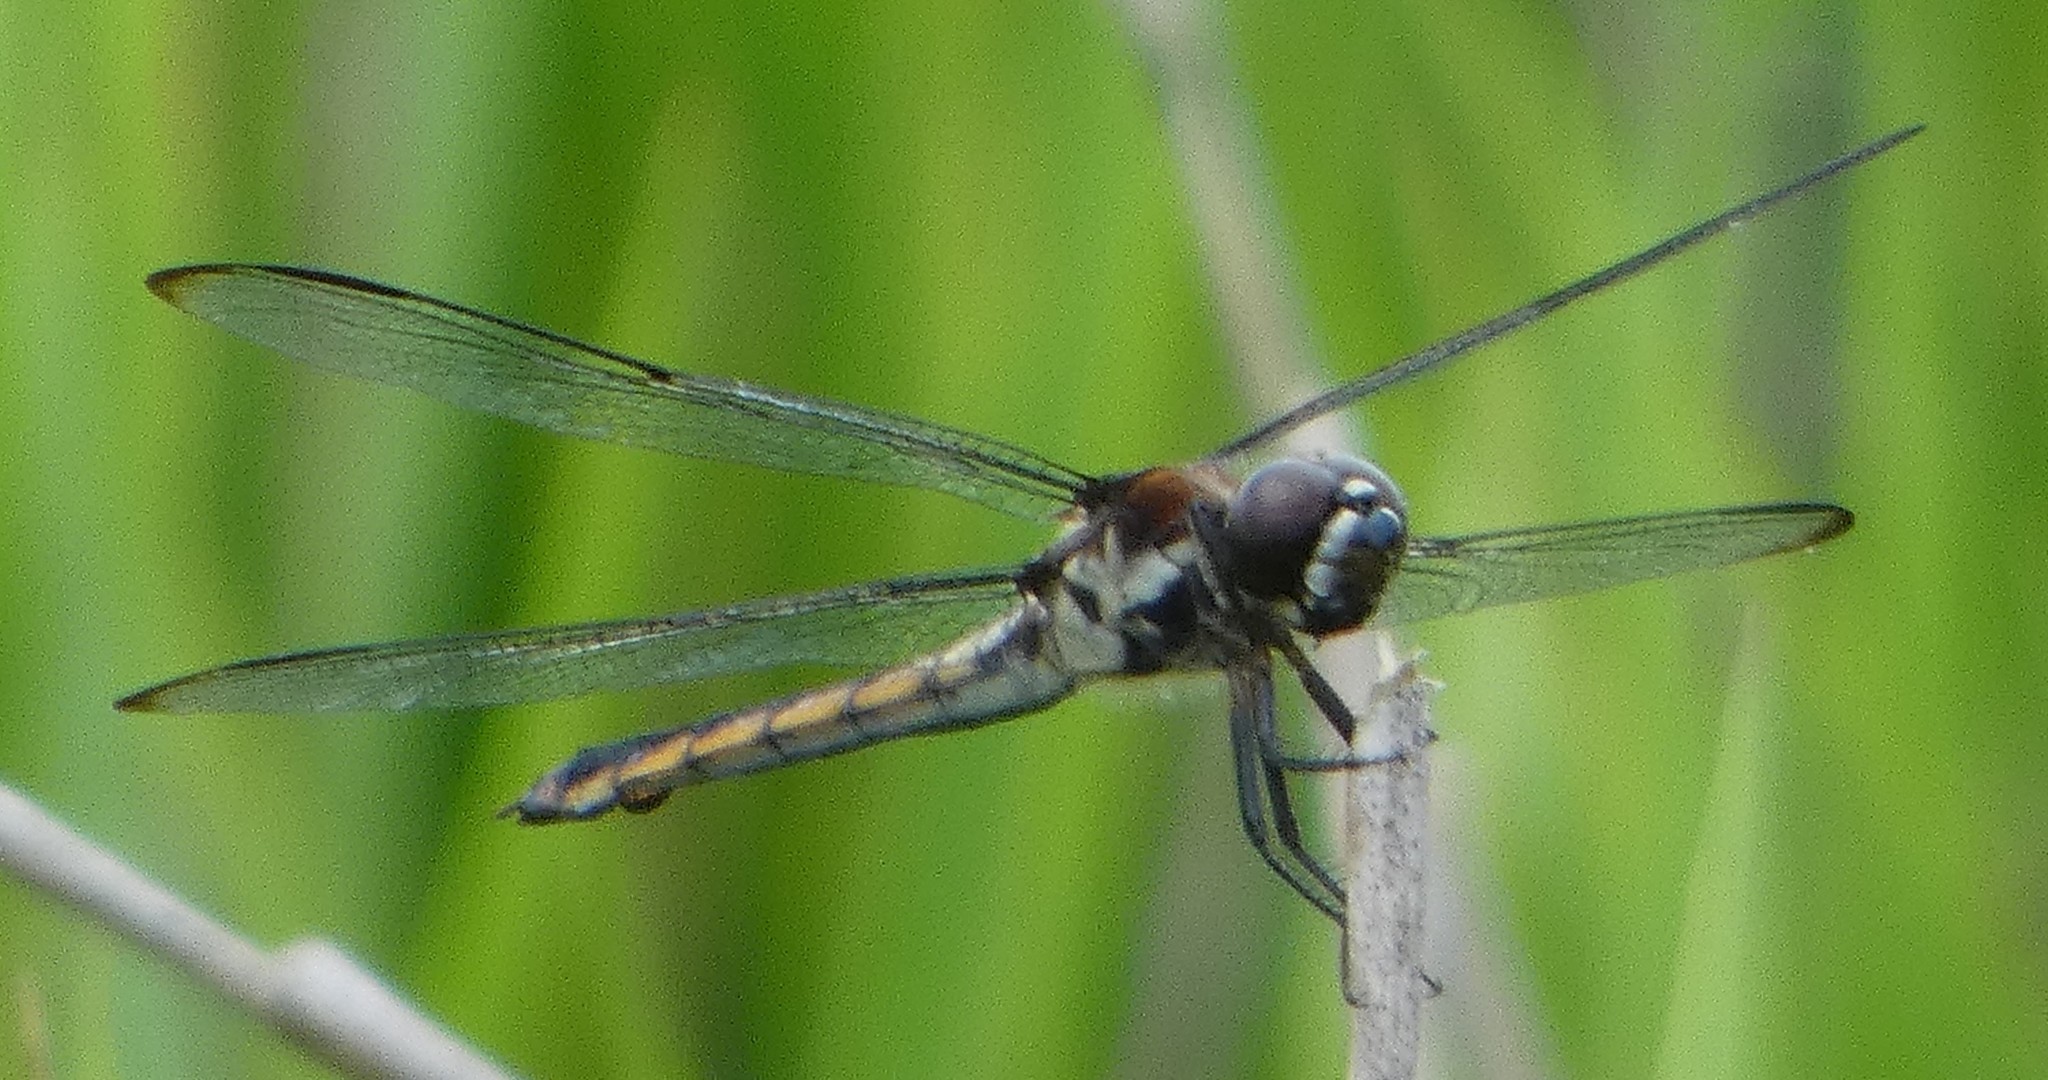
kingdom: Animalia
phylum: Arthropoda
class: Insecta
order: Odonata
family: Libellulidae
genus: Libellula
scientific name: Libellula axilena
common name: Bar-winged skimmer
